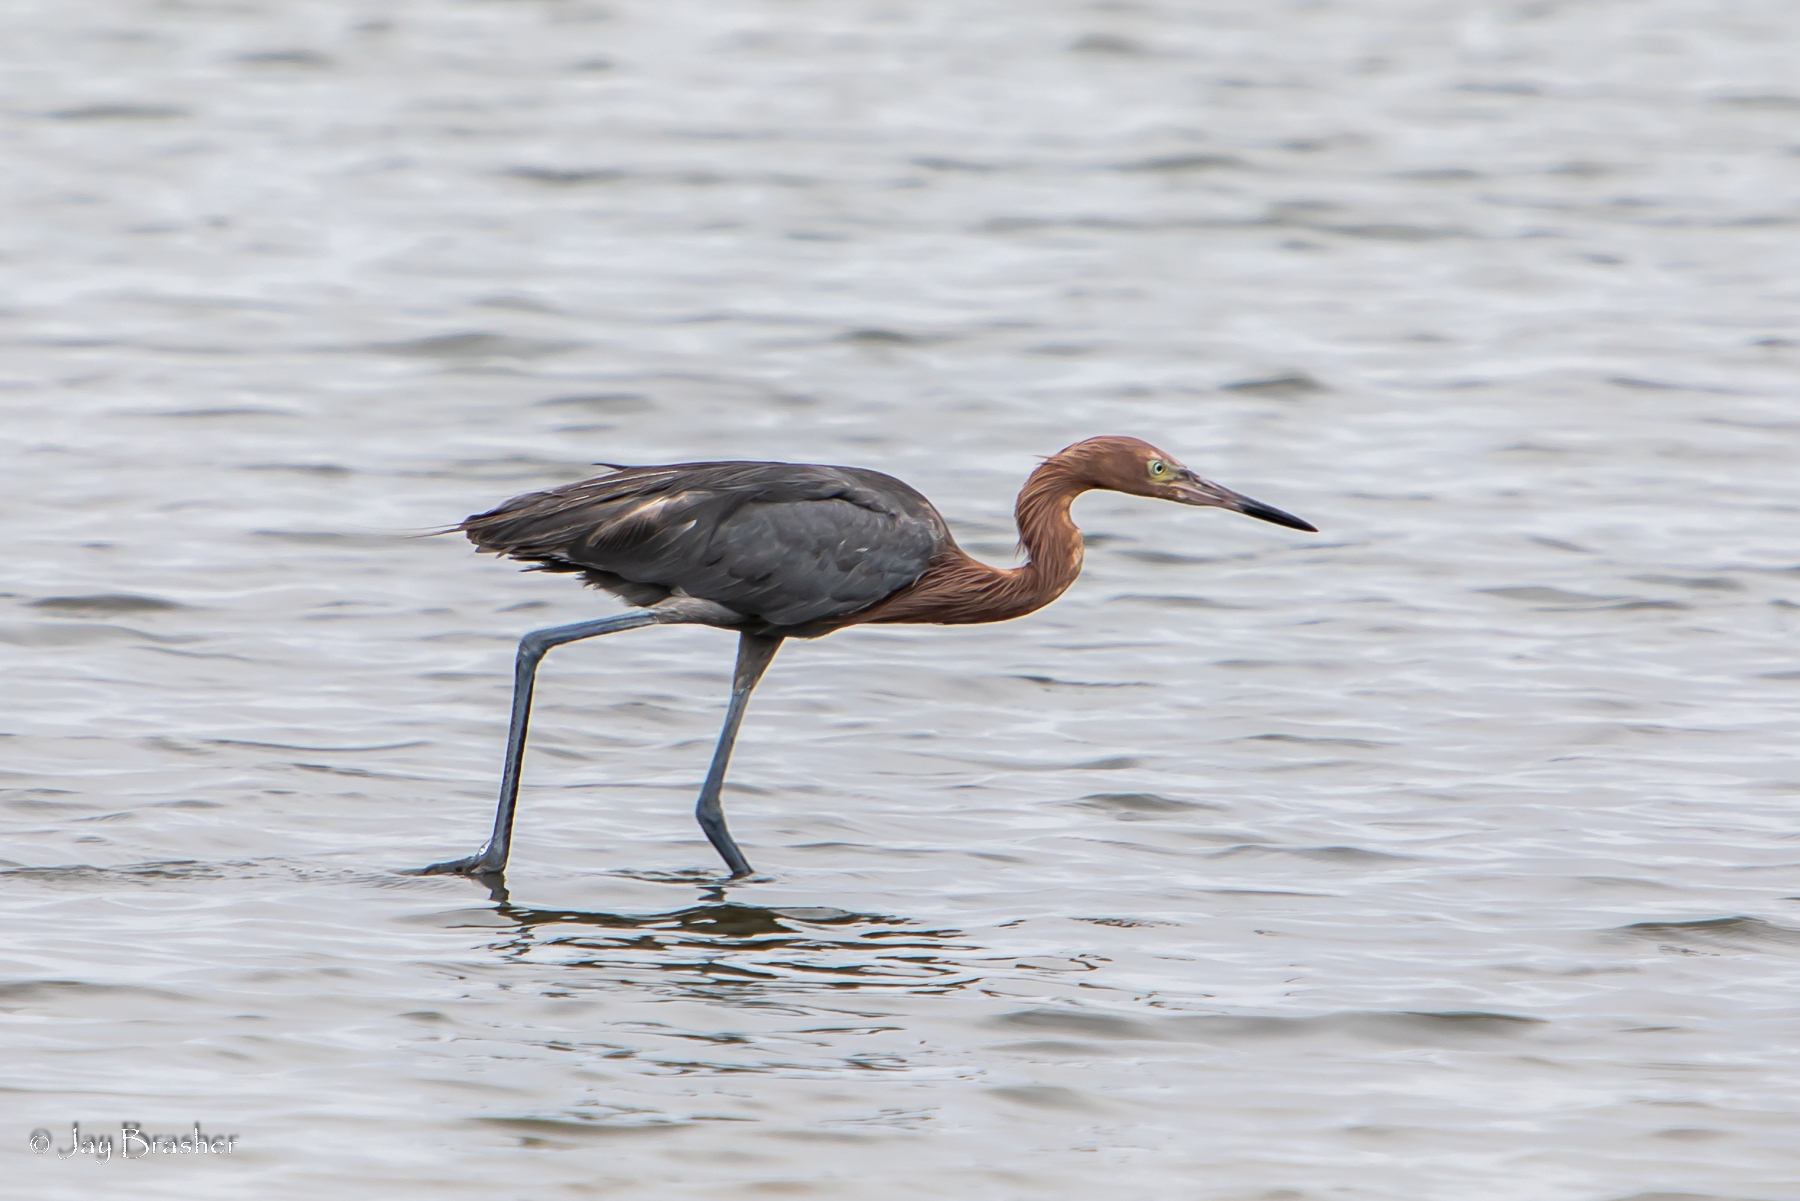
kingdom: Animalia
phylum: Chordata
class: Aves
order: Pelecaniformes
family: Ardeidae
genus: Egretta
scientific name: Egretta rufescens
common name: Reddish egret
